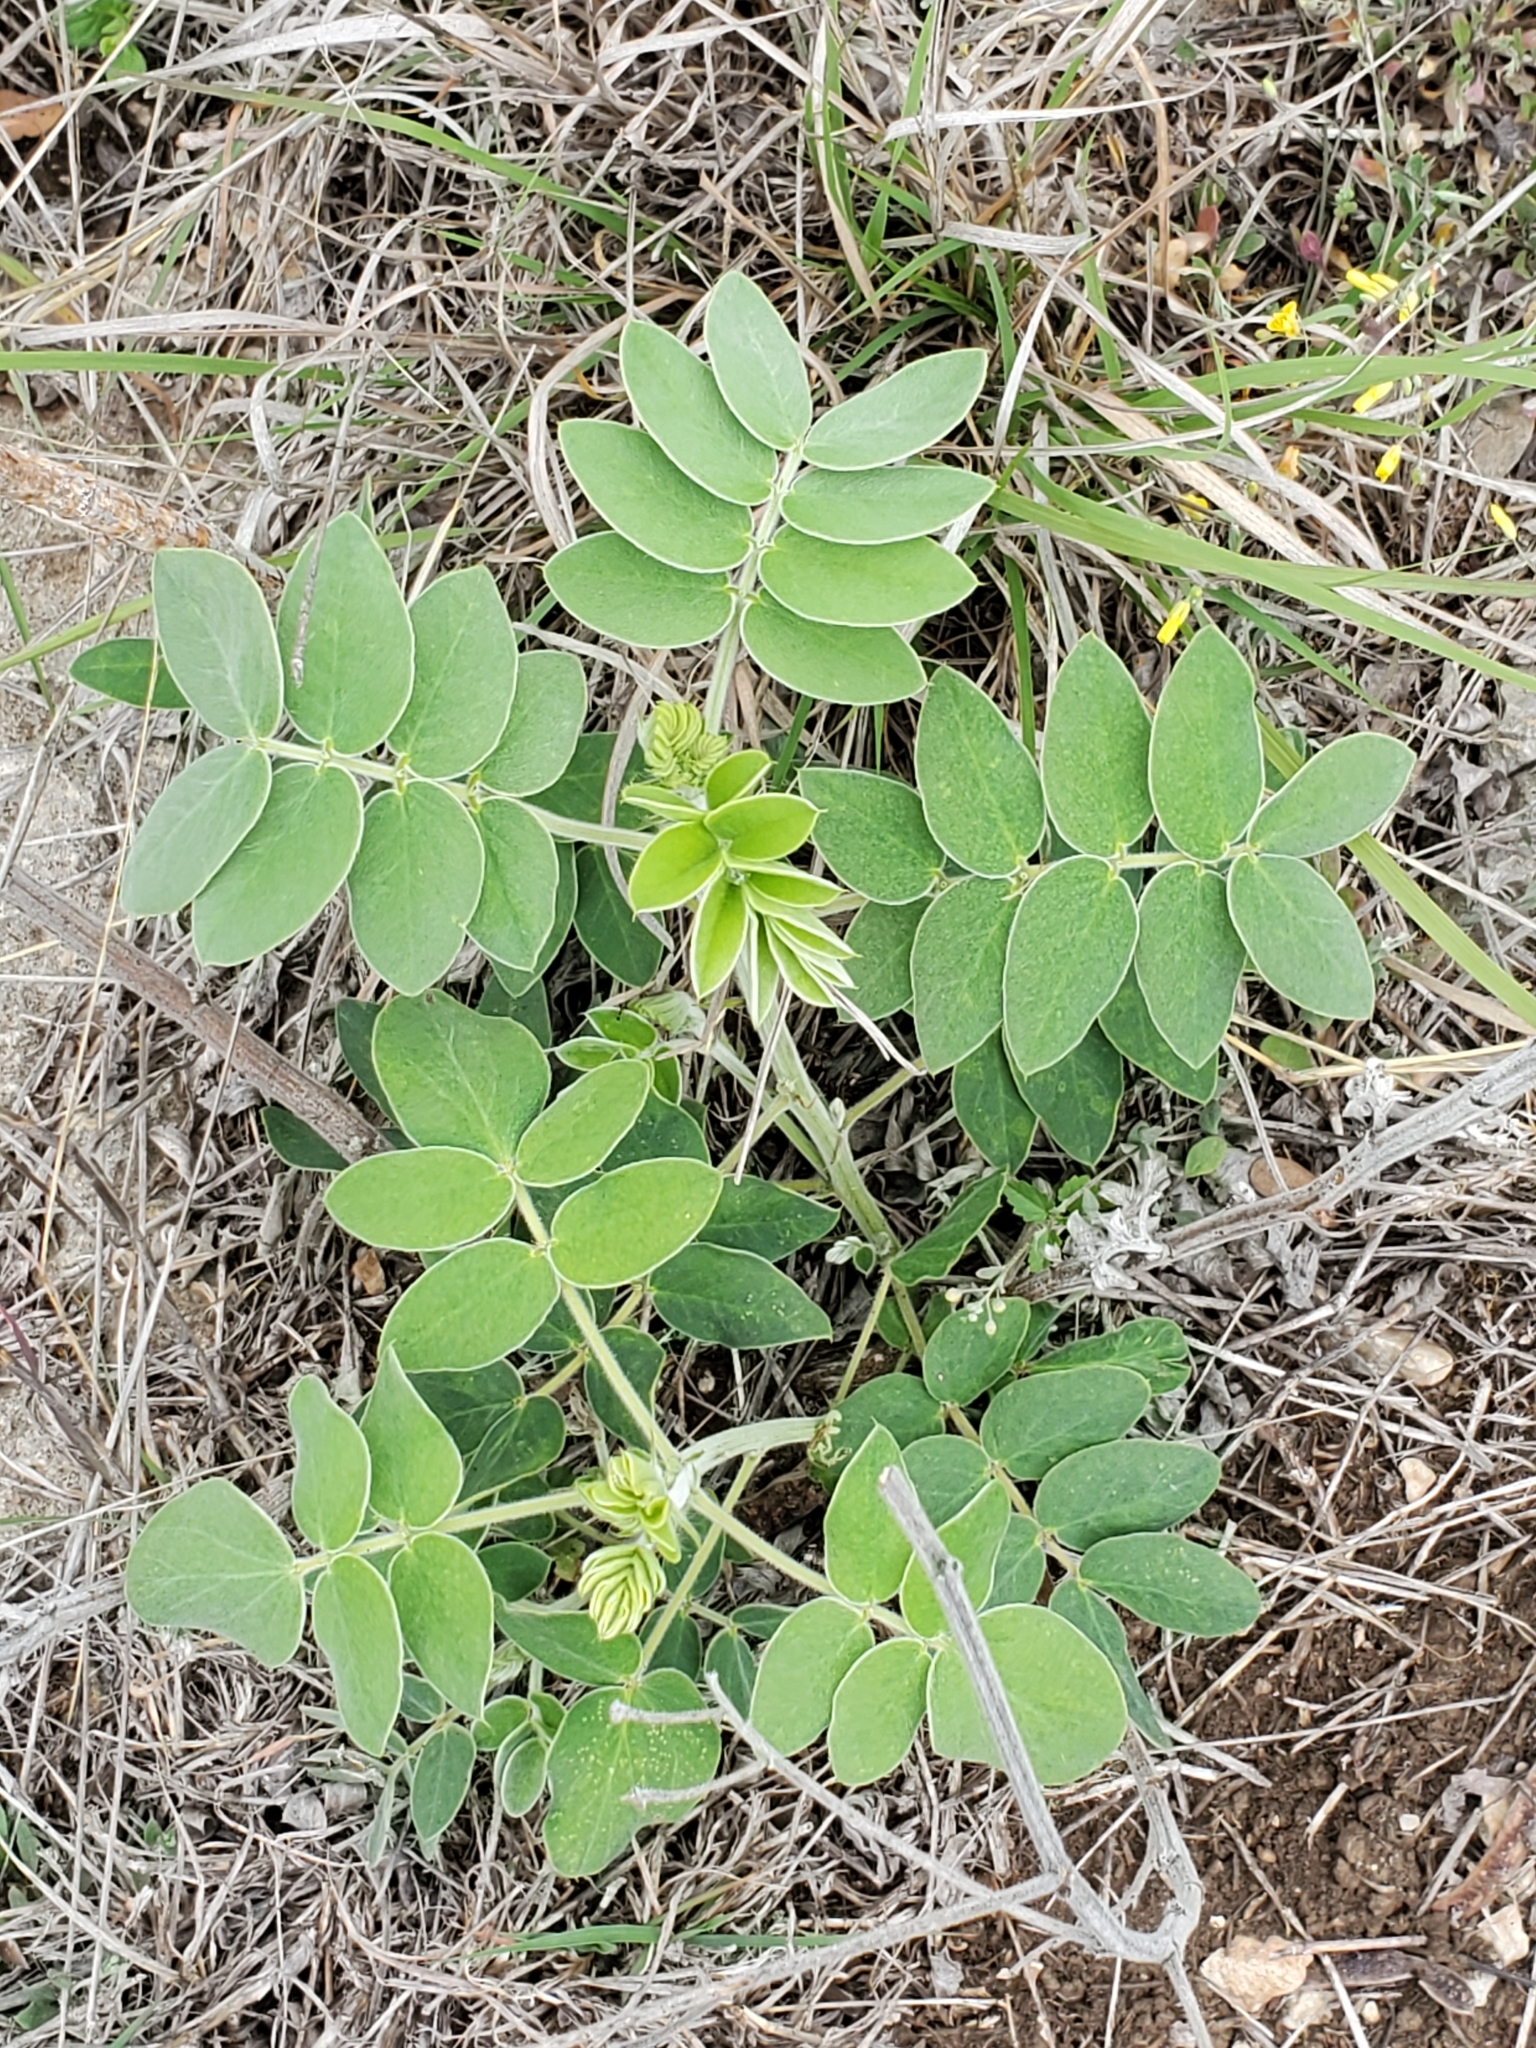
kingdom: Plantae
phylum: Tracheophyta
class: Magnoliopsida
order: Fabales
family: Fabaceae
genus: Senna
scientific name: Senna lindheimeriana
